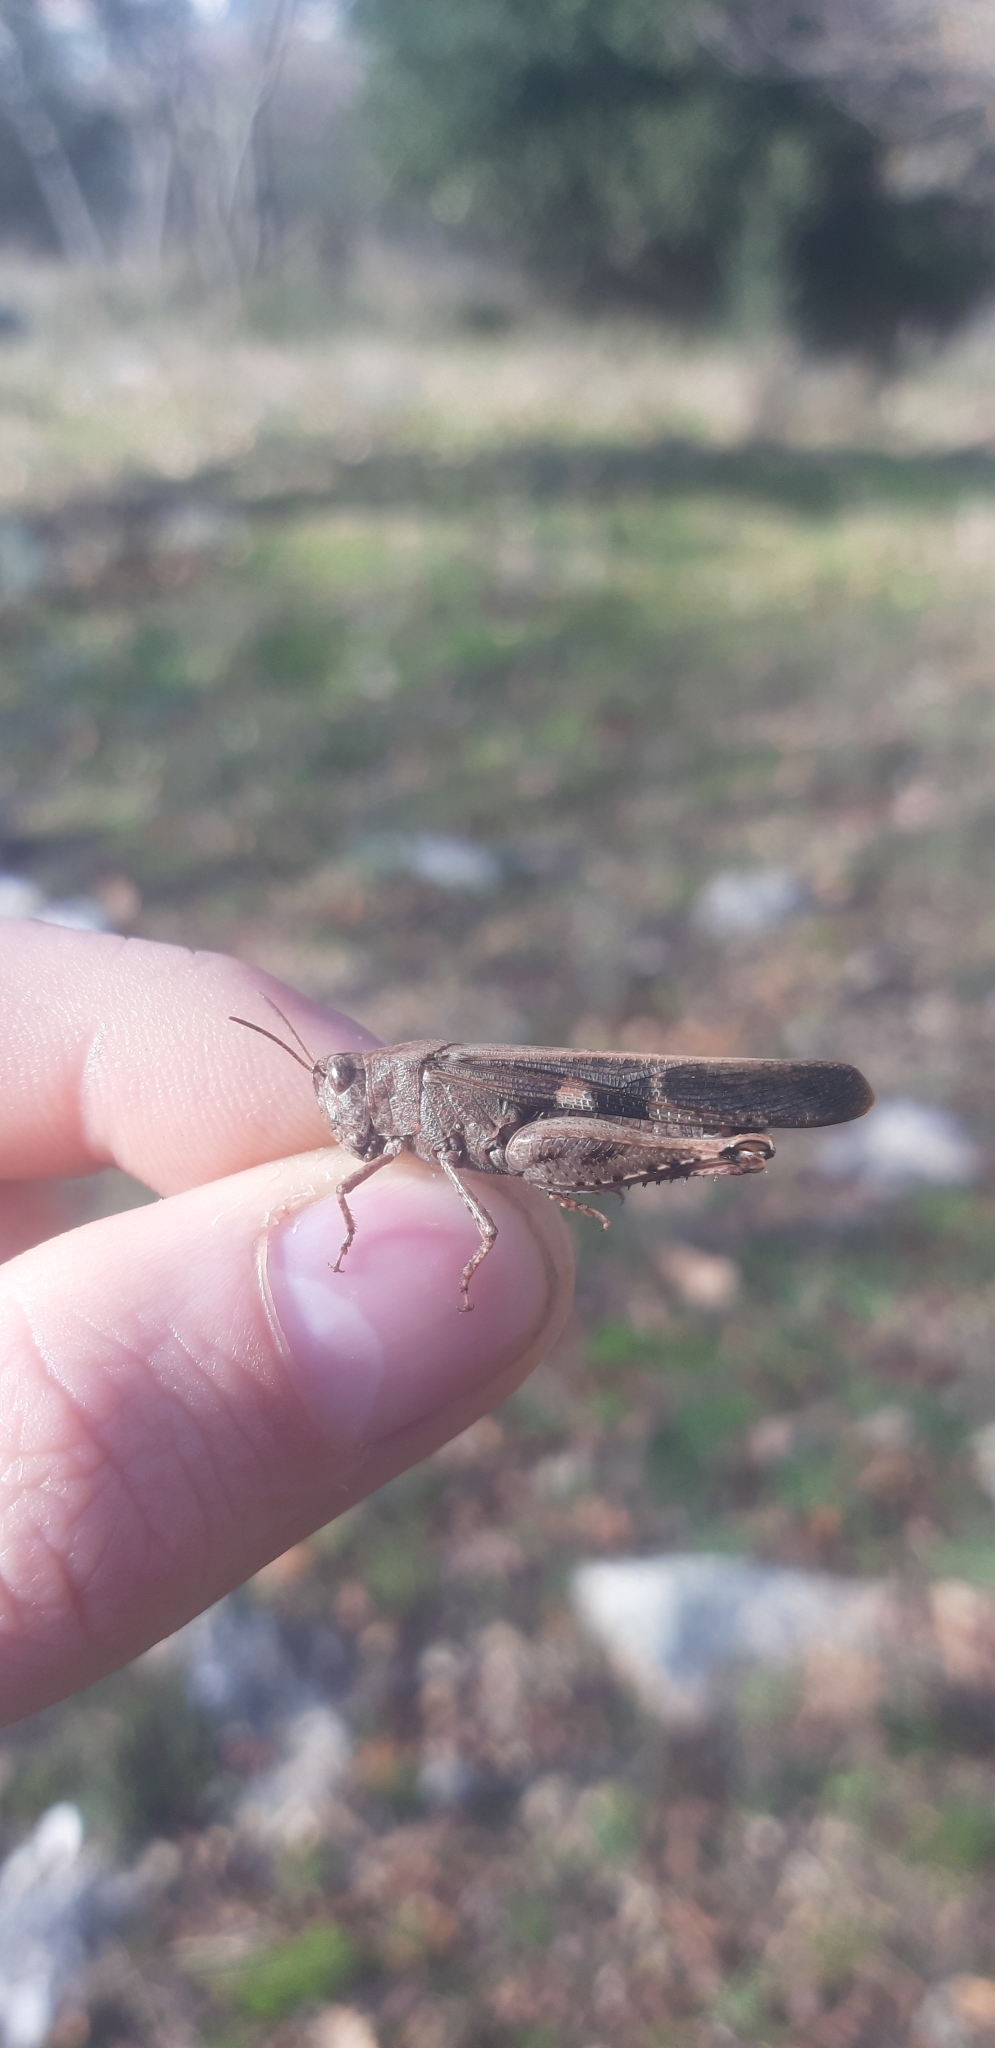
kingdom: Animalia
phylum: Arthropoda
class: Insecta
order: Orthoptera
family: Acrididae
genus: Aiolopus
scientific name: Aiolopus strepens
